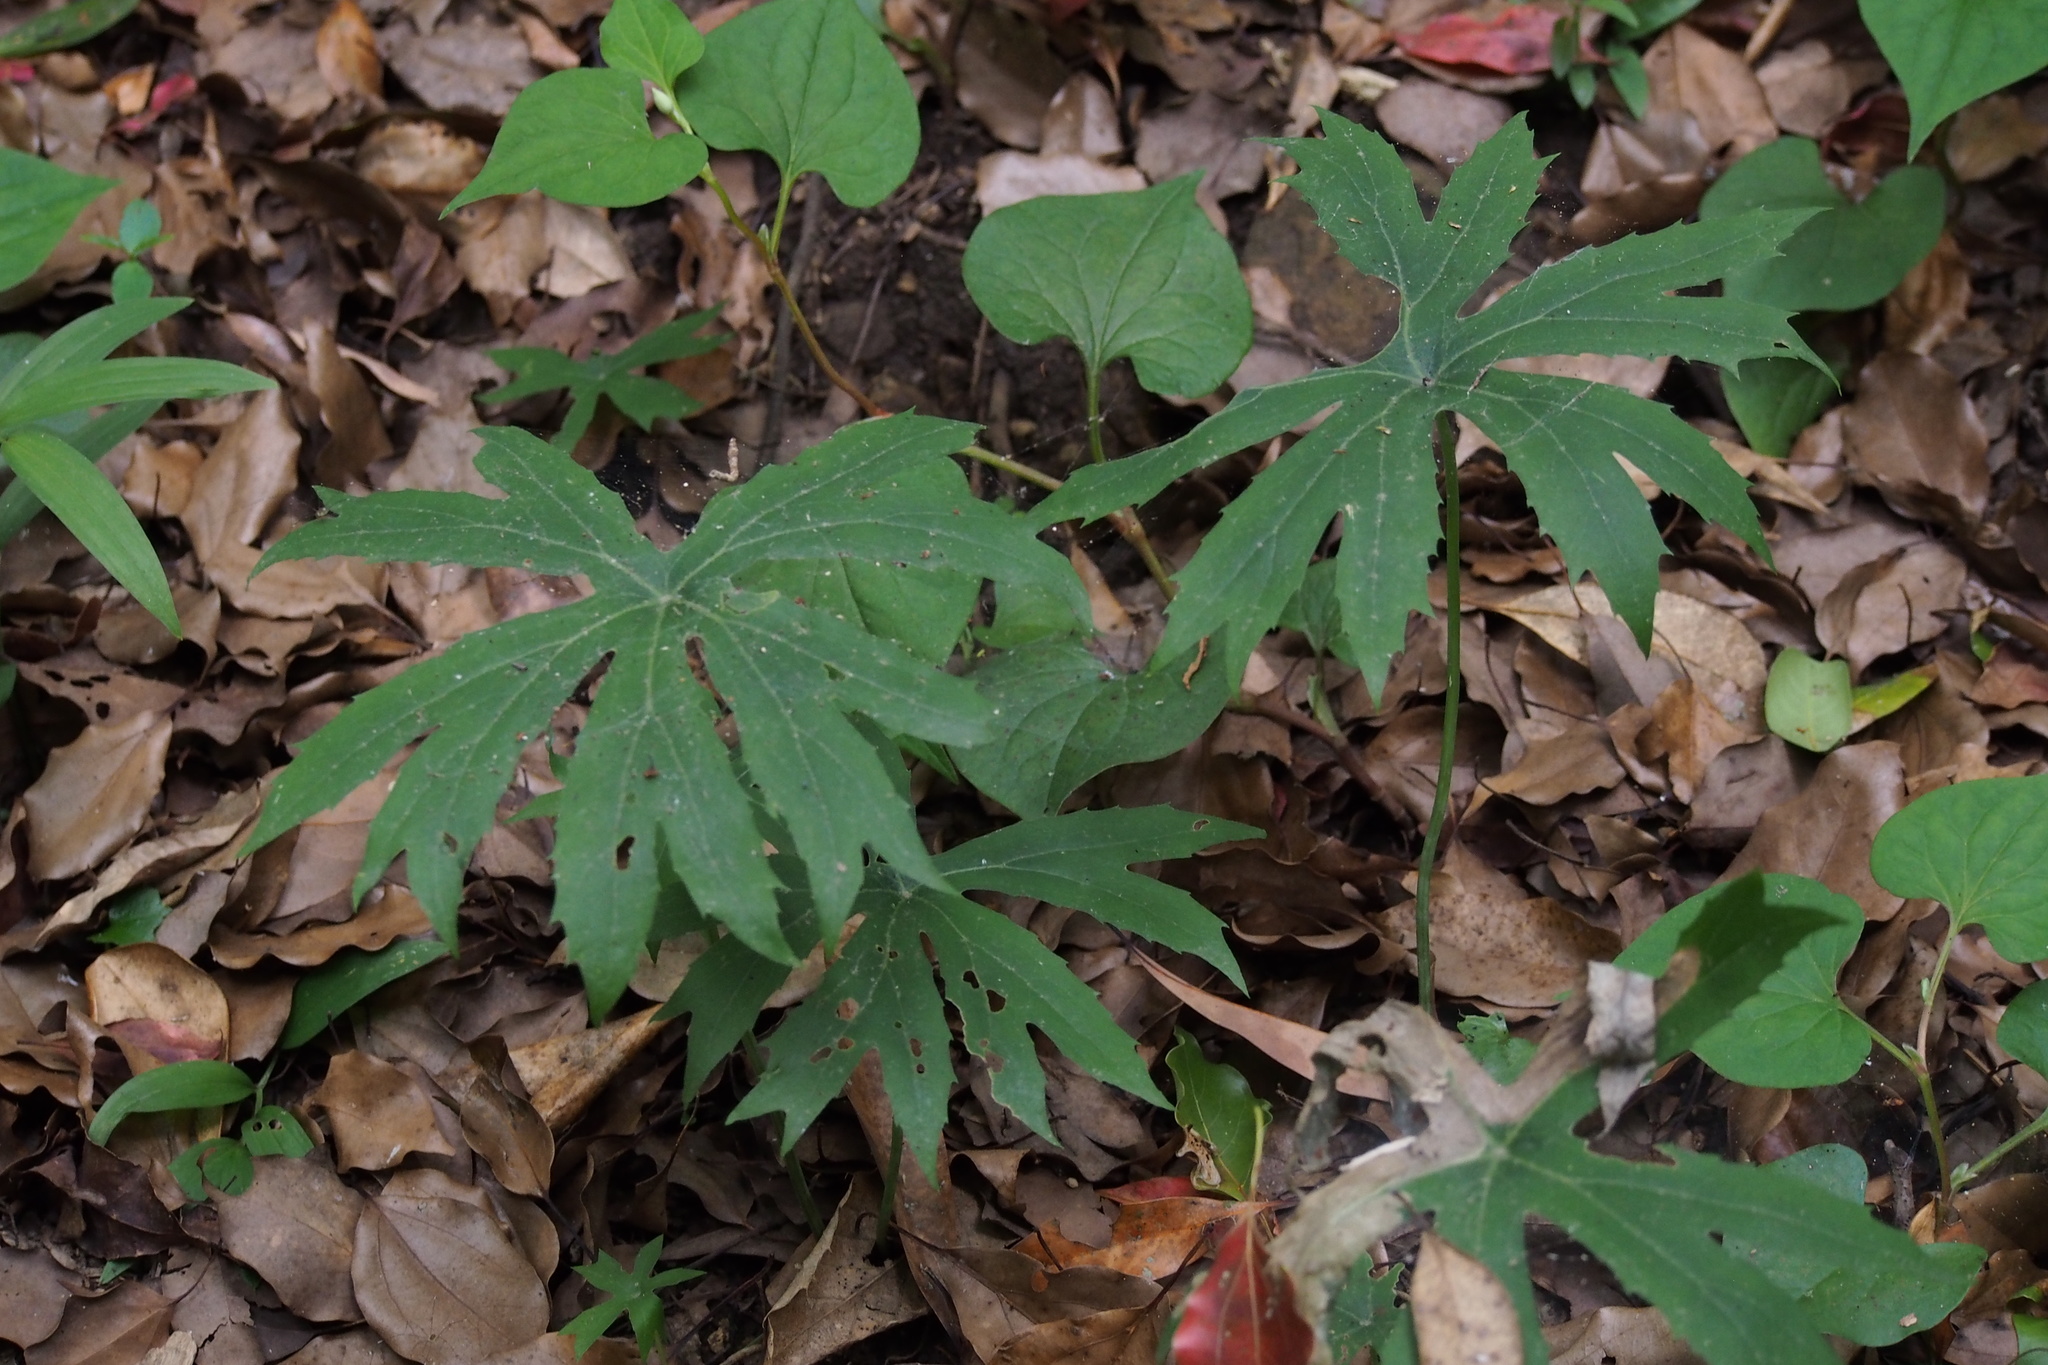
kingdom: Plantae
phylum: Tracheophyta
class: Magnoliopsida
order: Asterales
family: Asteraceae
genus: Syneilesis
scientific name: Syneilesis palmata
